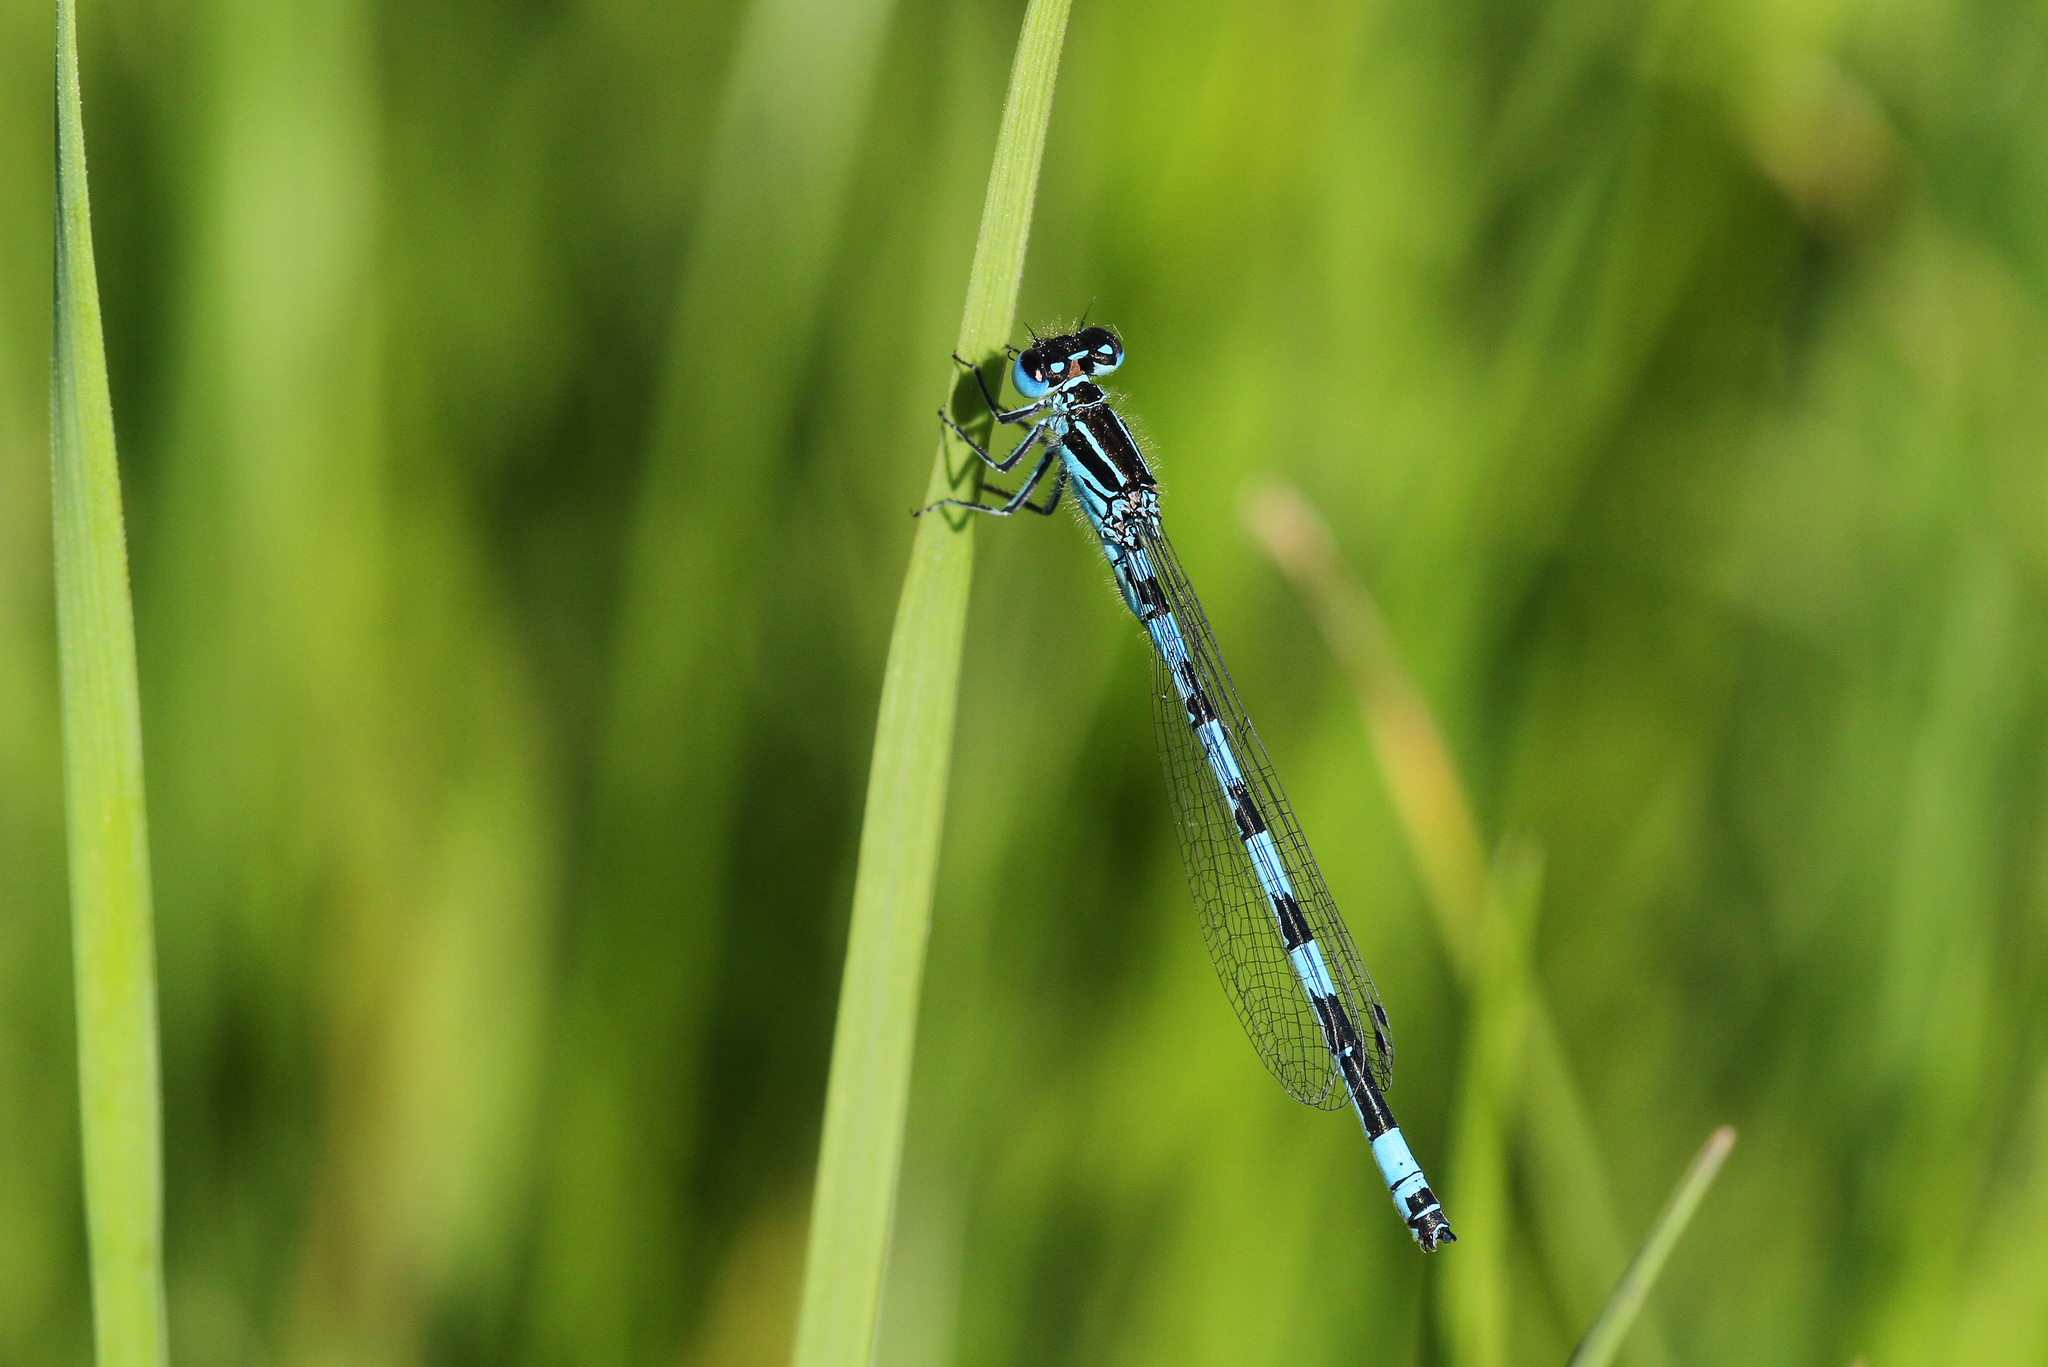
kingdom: Animalia
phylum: Arthropoda
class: Insecta
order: Odonata
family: Coenagrionidae
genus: Coenagrion
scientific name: Coenagrion mercuriale
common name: Southern damselfly
